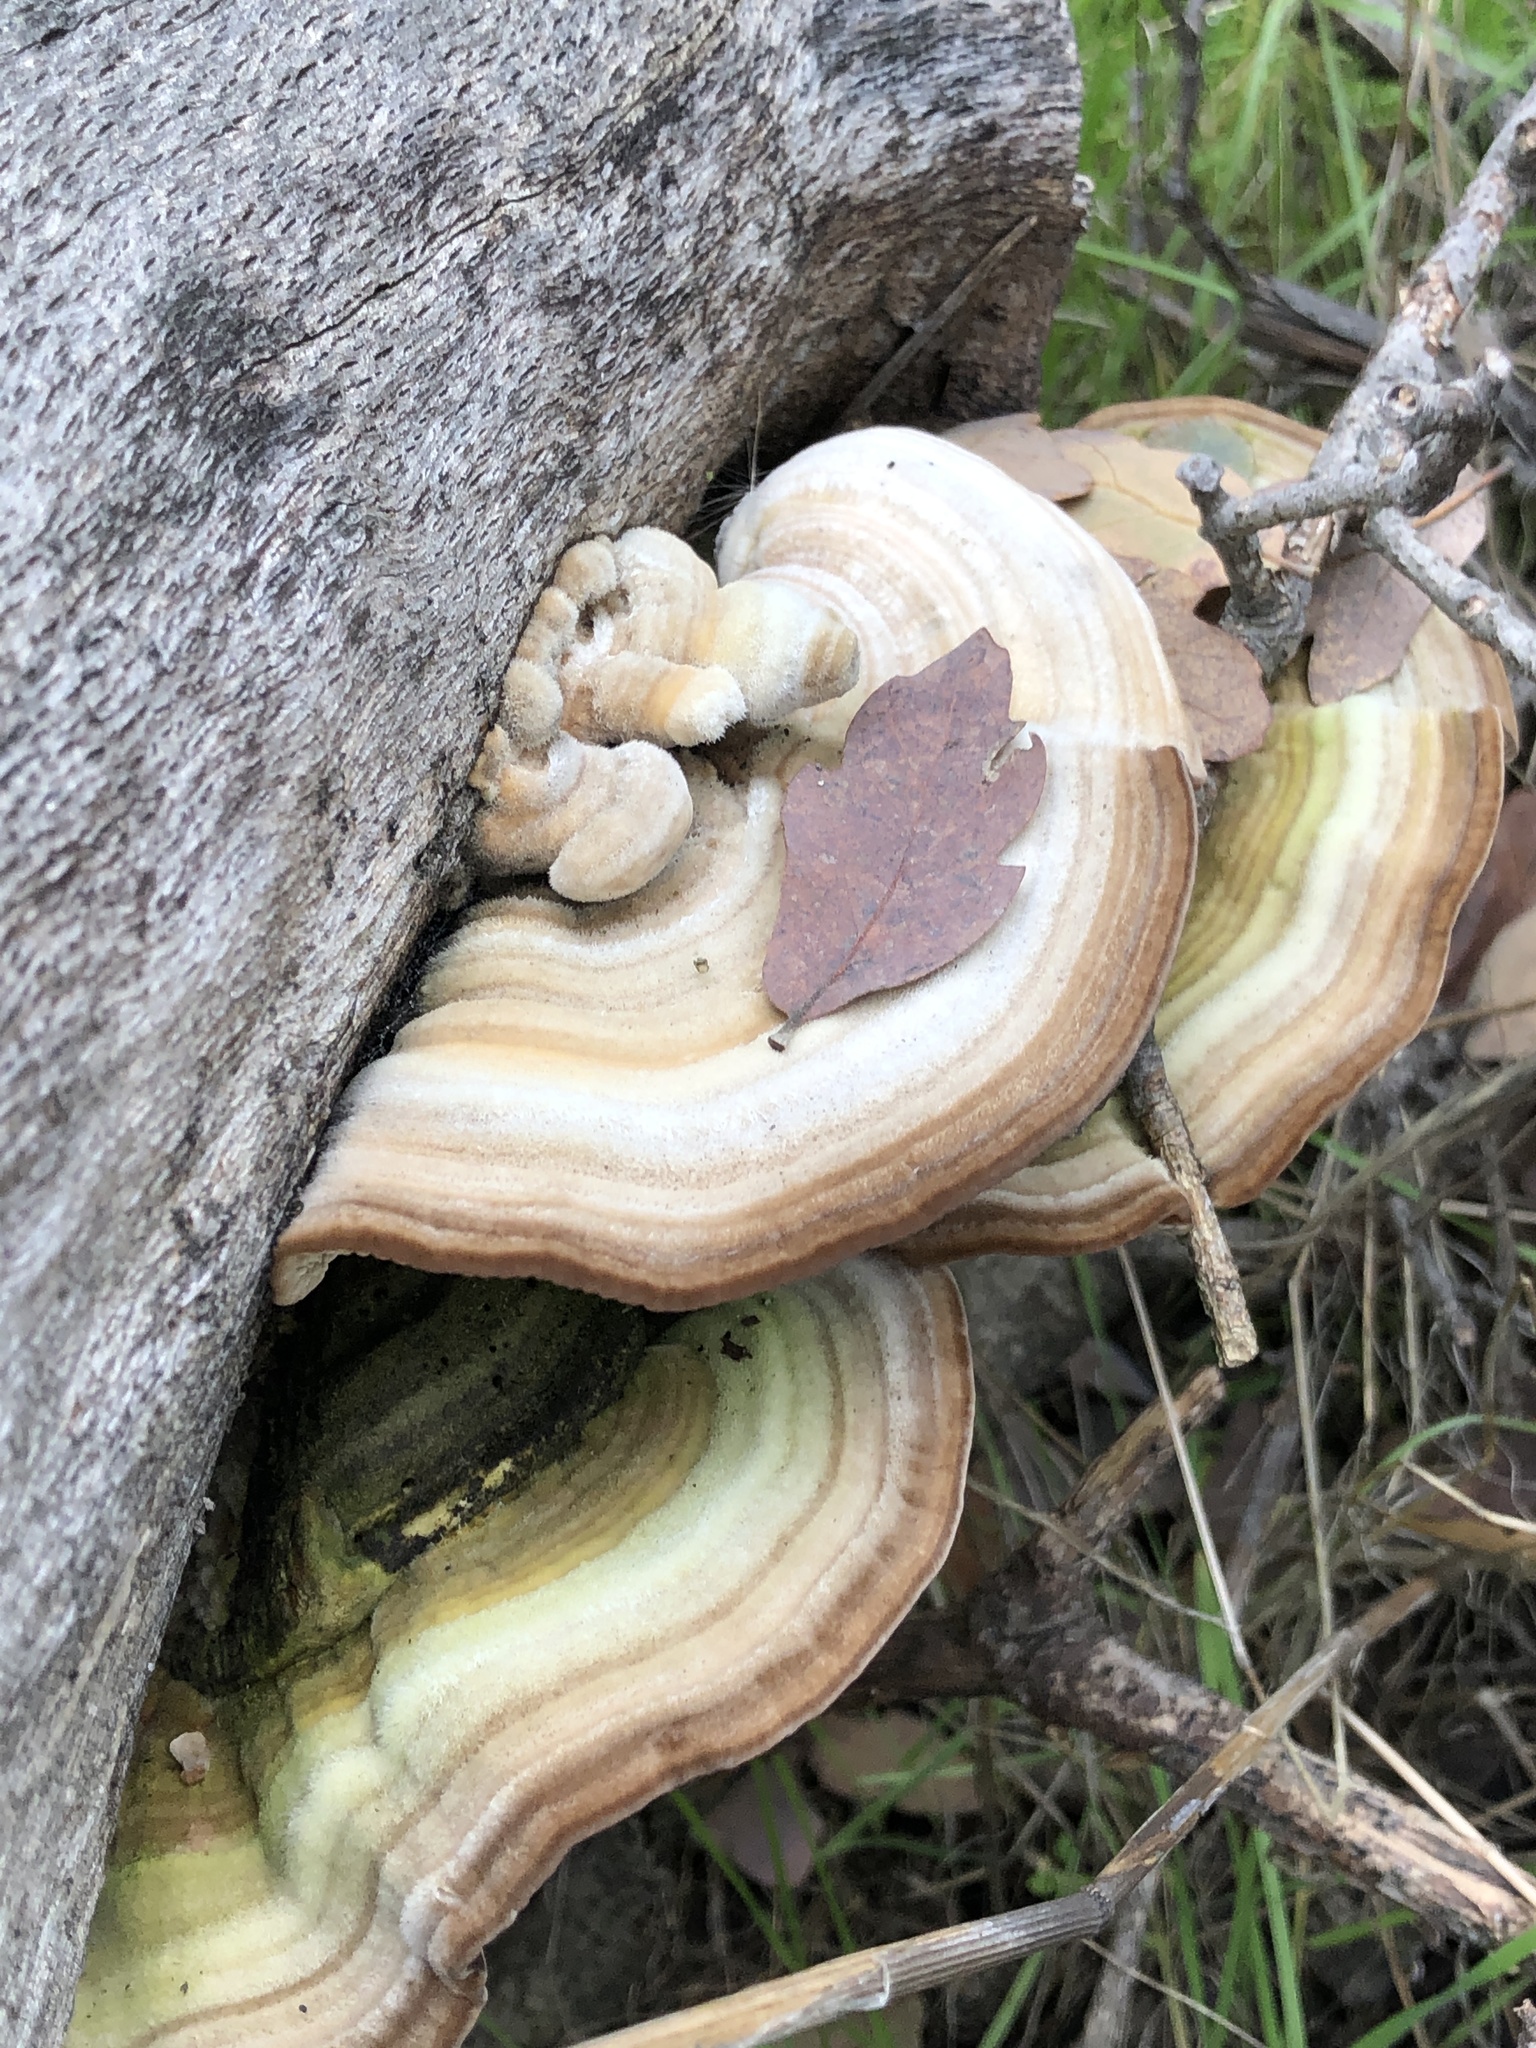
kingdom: Fungi
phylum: Basidiomycota
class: Agaricomycetes
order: Polyporales
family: Polyporaceae
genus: Lenzites
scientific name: Lenzites betulinus
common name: Birch mazegill
